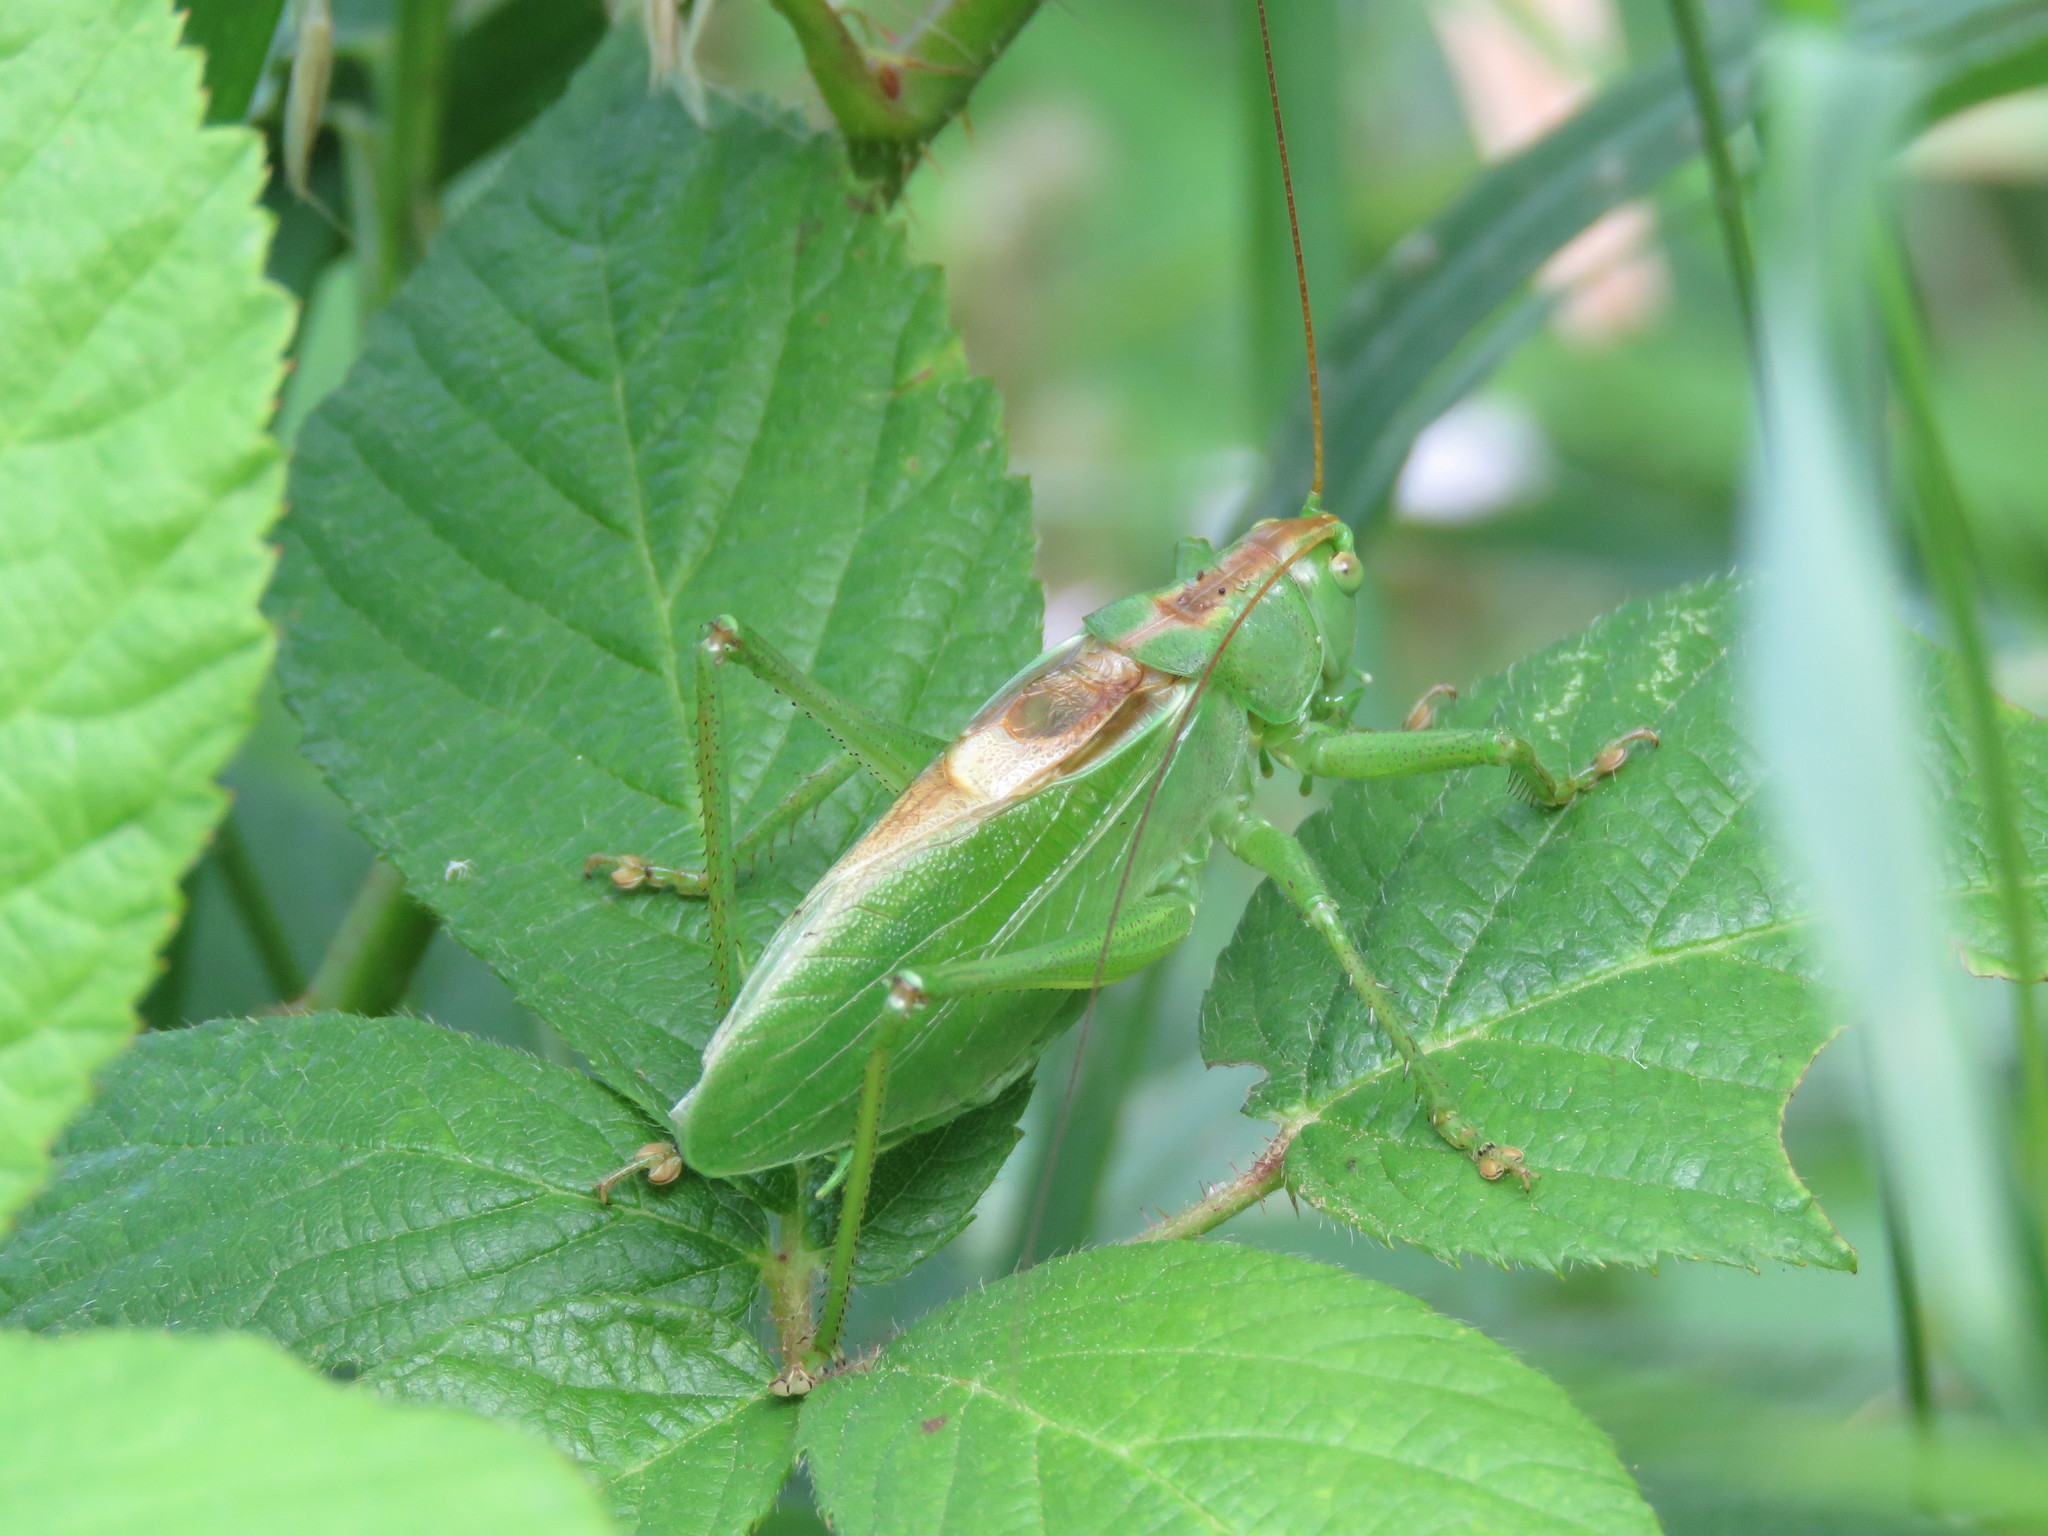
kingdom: Animalia
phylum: Arthropoda
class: Insecta
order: Orthoptera
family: Tettigoniidae
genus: Tettigonia
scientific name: Tettigonia cantans
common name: Upland green bush-cricket
